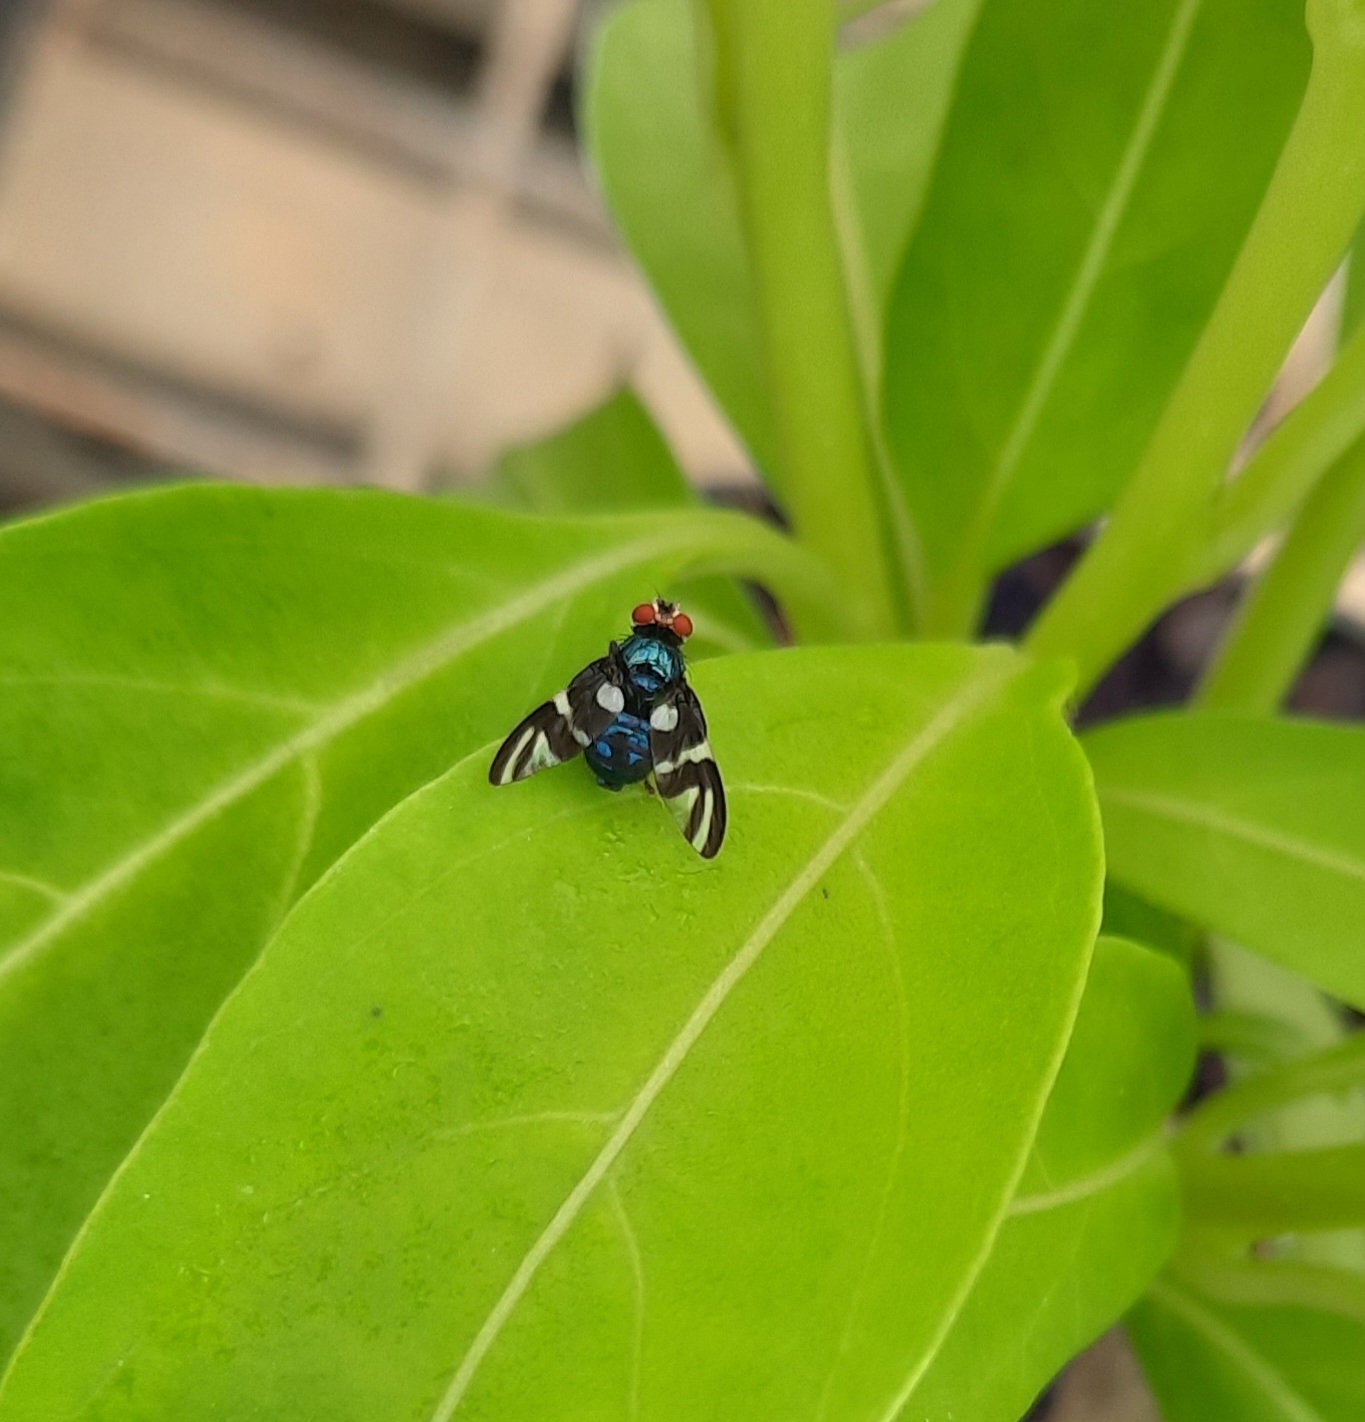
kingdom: Animalia
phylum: Arthropoda
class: Insecta
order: Diptera
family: Platystomatidae
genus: Piara
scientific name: Piara cyanea
